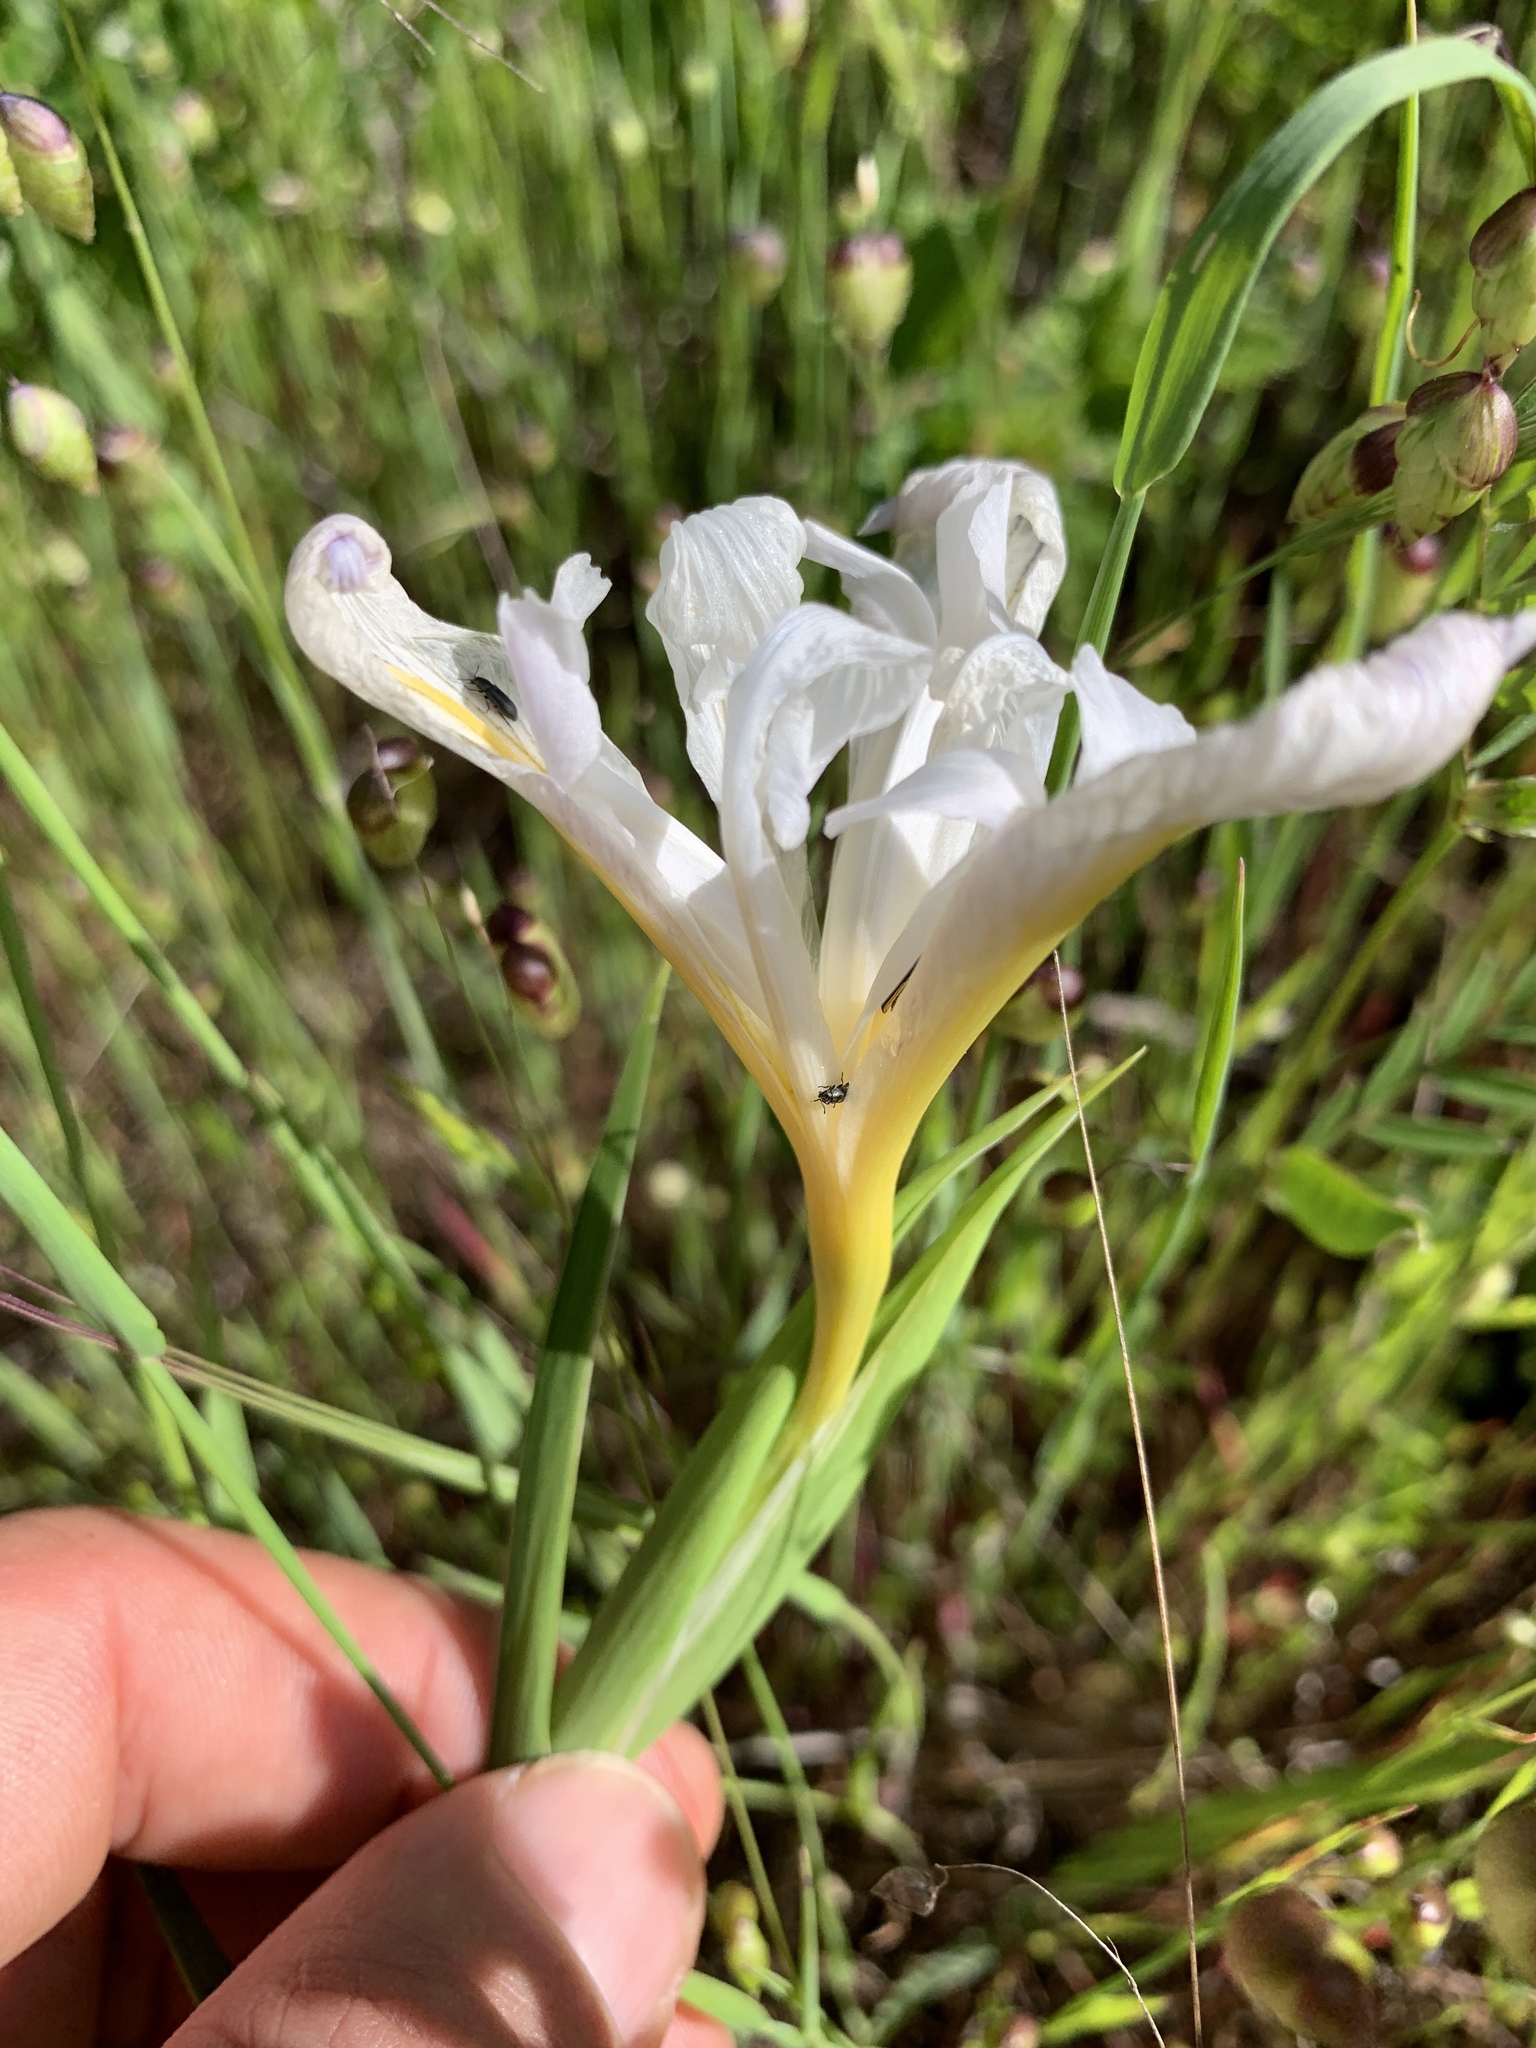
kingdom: Plantae
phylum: Tracheophyta
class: Liliopsida
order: Asparagales
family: Iridaceae
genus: Iris
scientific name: Iris douglasiana
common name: Marin iris
